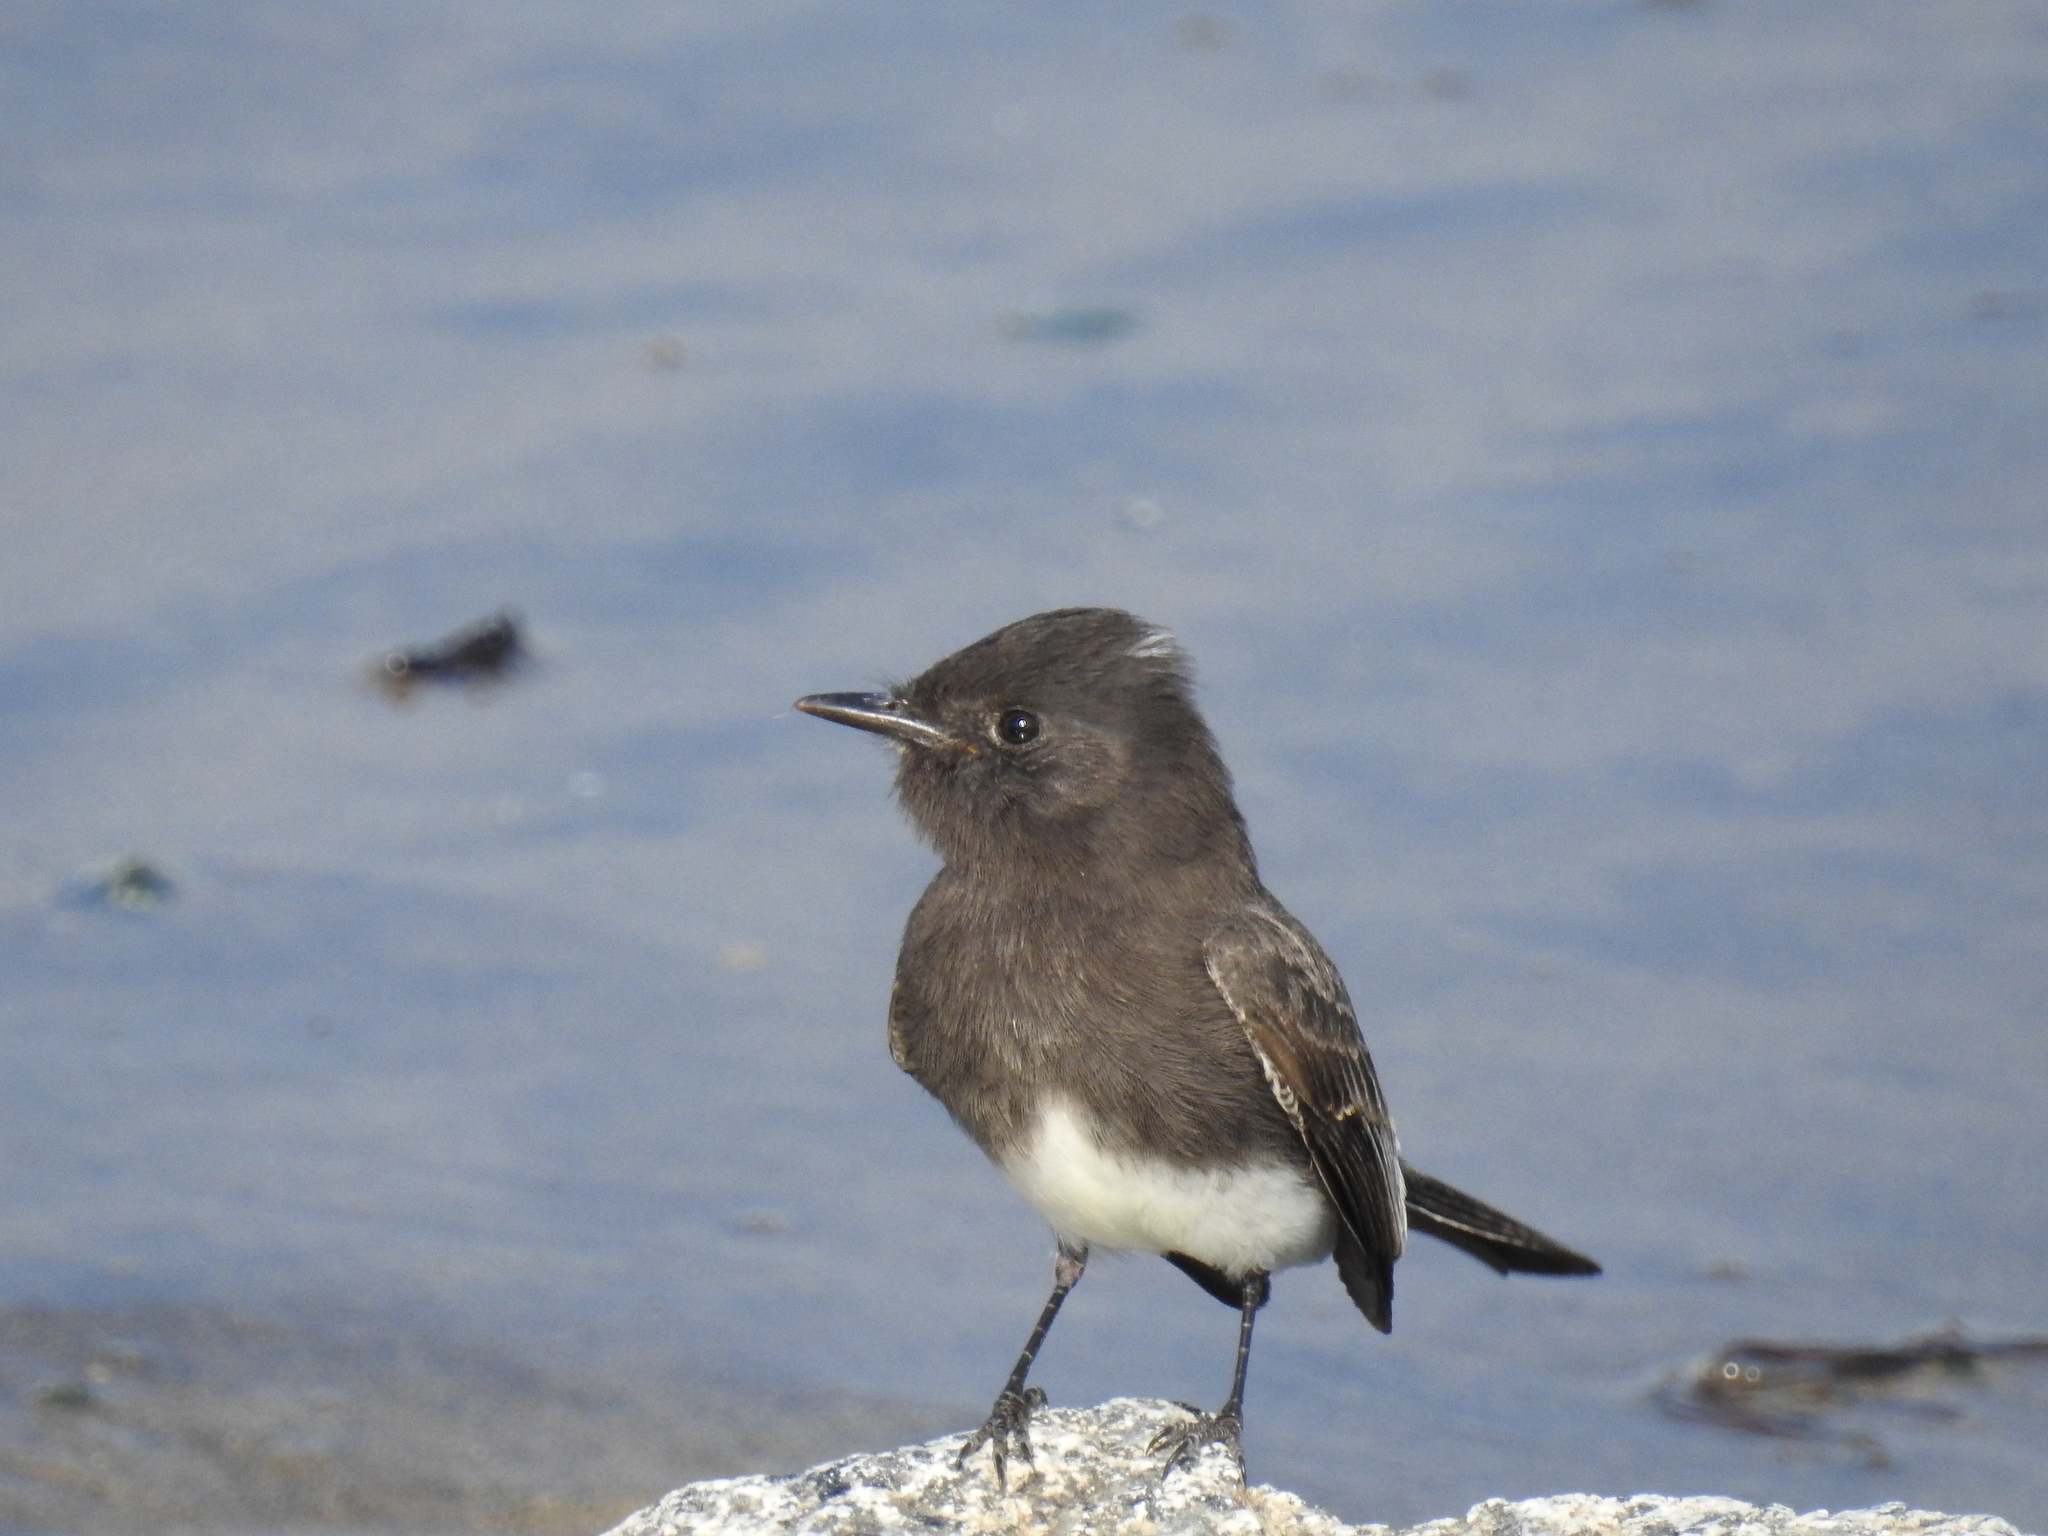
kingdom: Animalia
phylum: Chordata
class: Aves
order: Passeriformes
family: Tyrannidae
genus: Sayornis
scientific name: Sayornis nigricans
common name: Black phoebe
